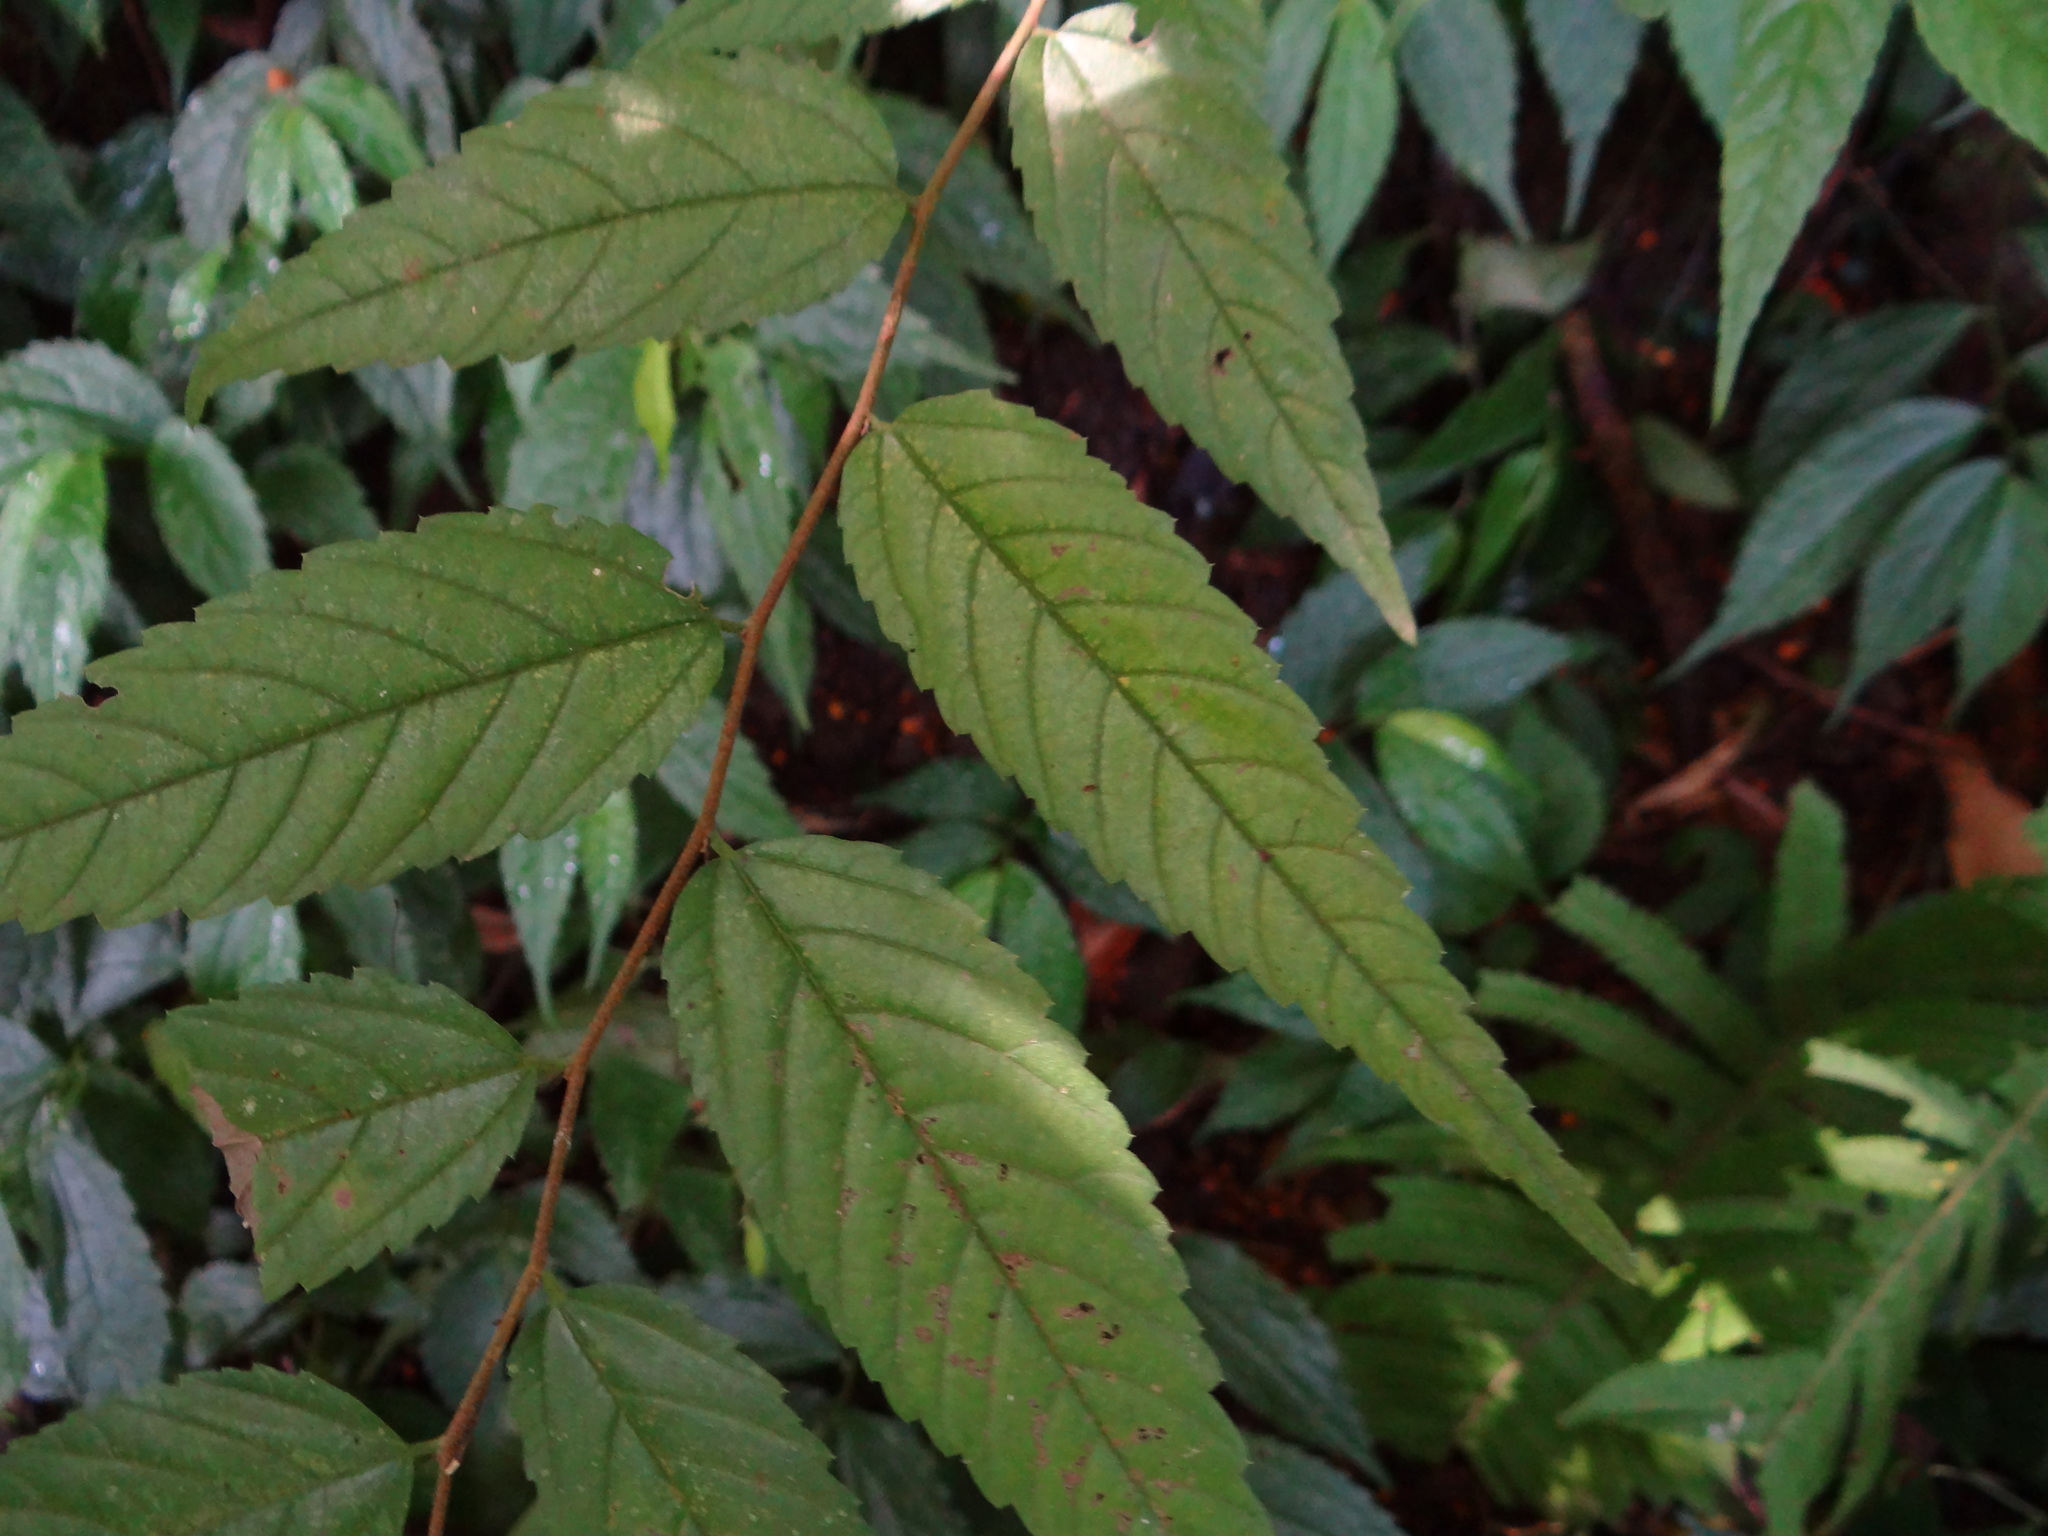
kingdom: Plantae
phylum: Tracheophyta
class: Magnoliopsida
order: Rosales
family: Cannabaceae
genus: Aphananthe
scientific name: Aphananthe aspera
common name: Mukutree
